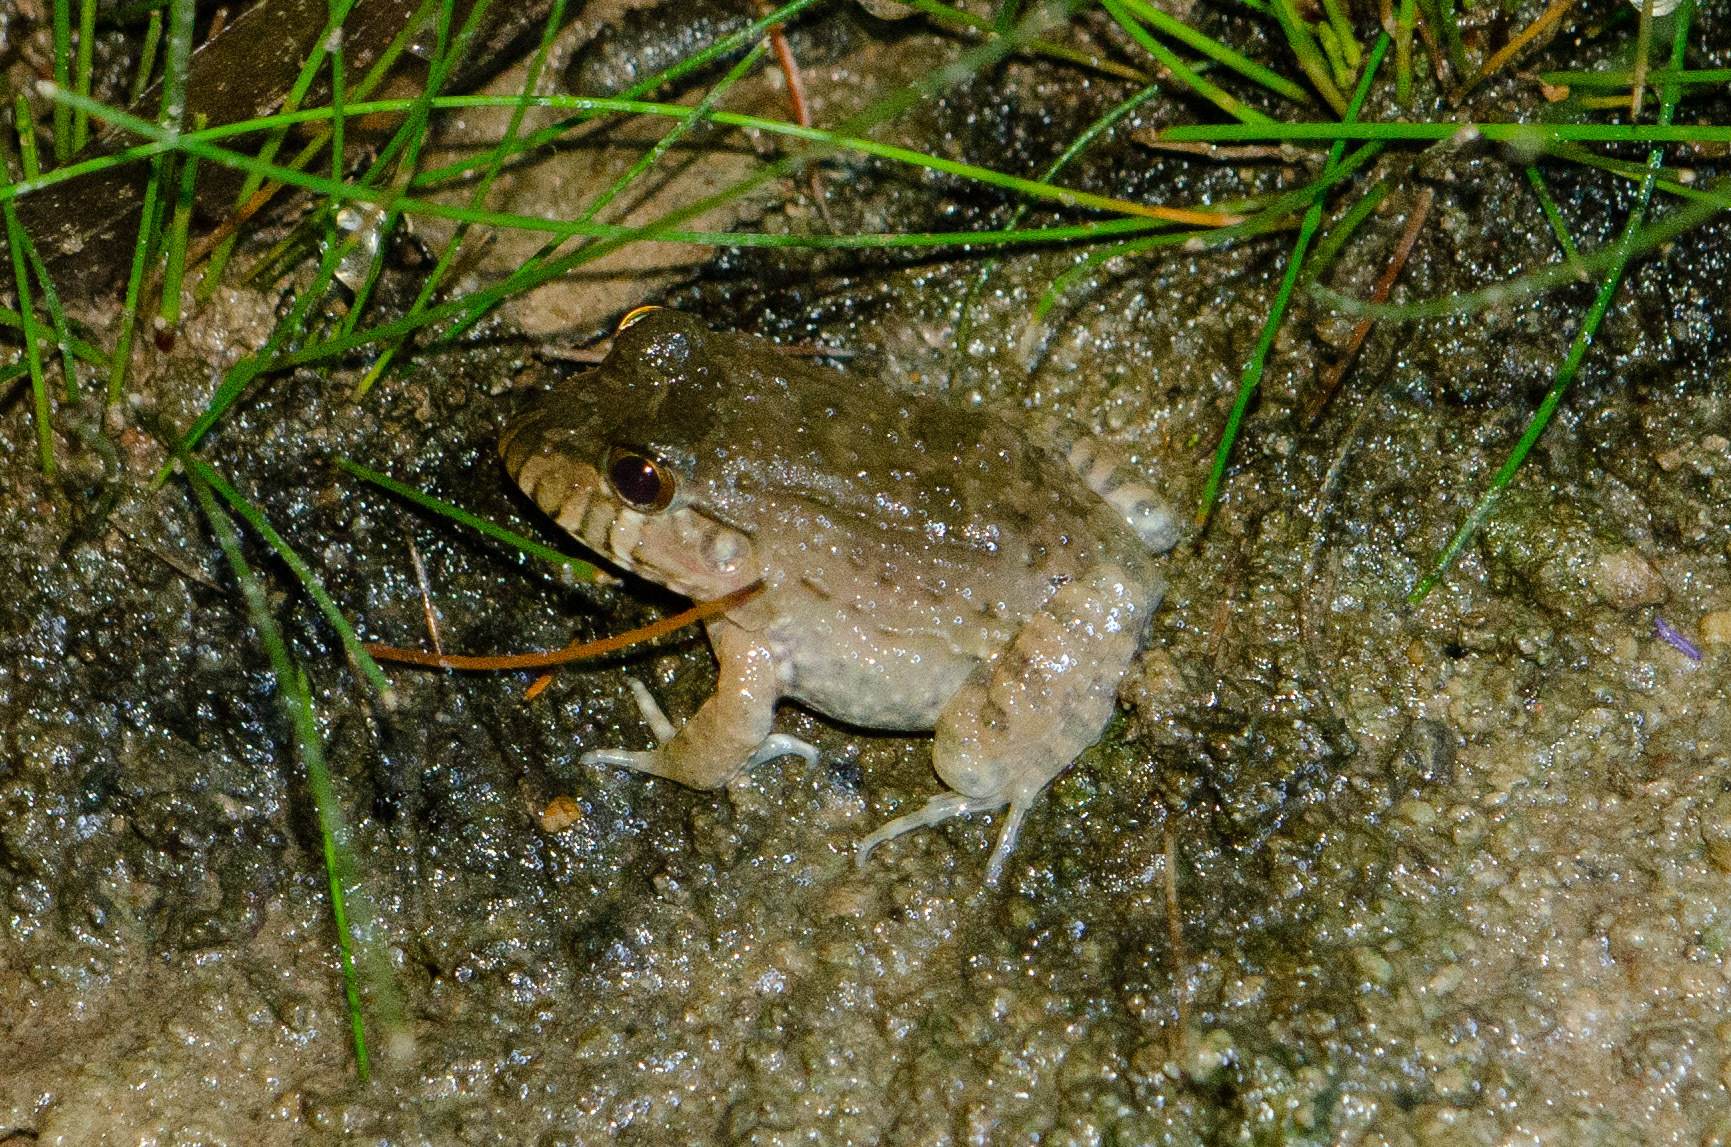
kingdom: Animalia
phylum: Chordata
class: Amphibia
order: Anura
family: Leptodactylidae
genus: Leptodactylus
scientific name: Leptodactylus vastus
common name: Northeastern pepper frog
